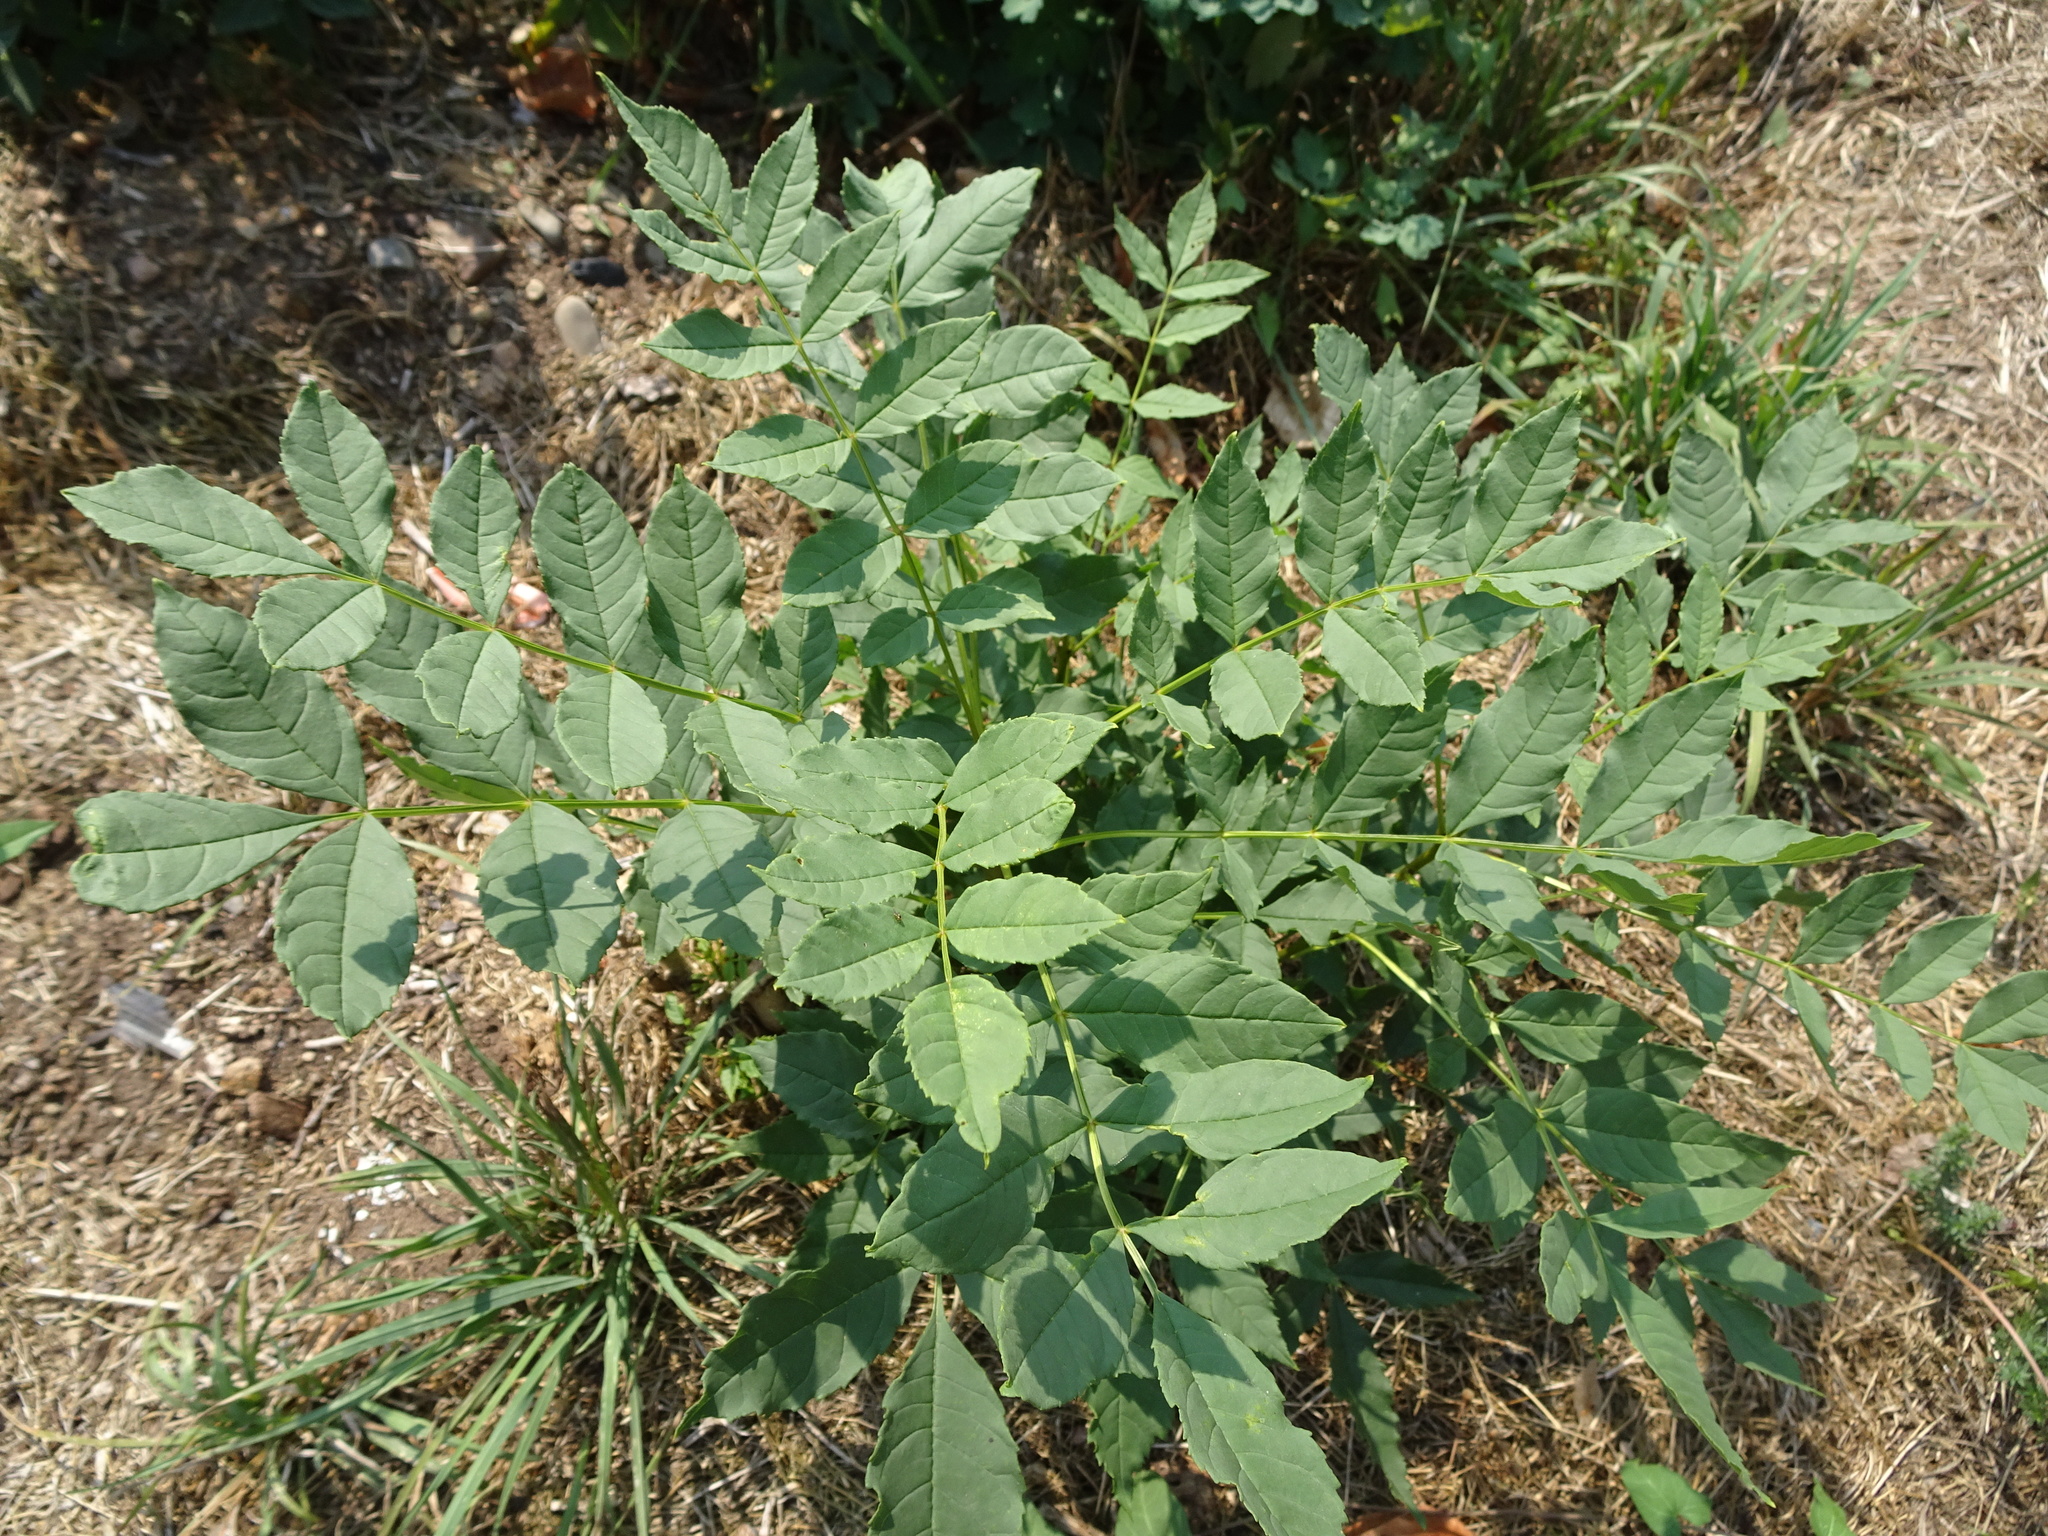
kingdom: Plantae
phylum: Tracheophyta
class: Magnoliopsida
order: Lamiales
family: Oleaceae
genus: Fraxinus
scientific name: Fraxinus excelsior
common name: European ash
